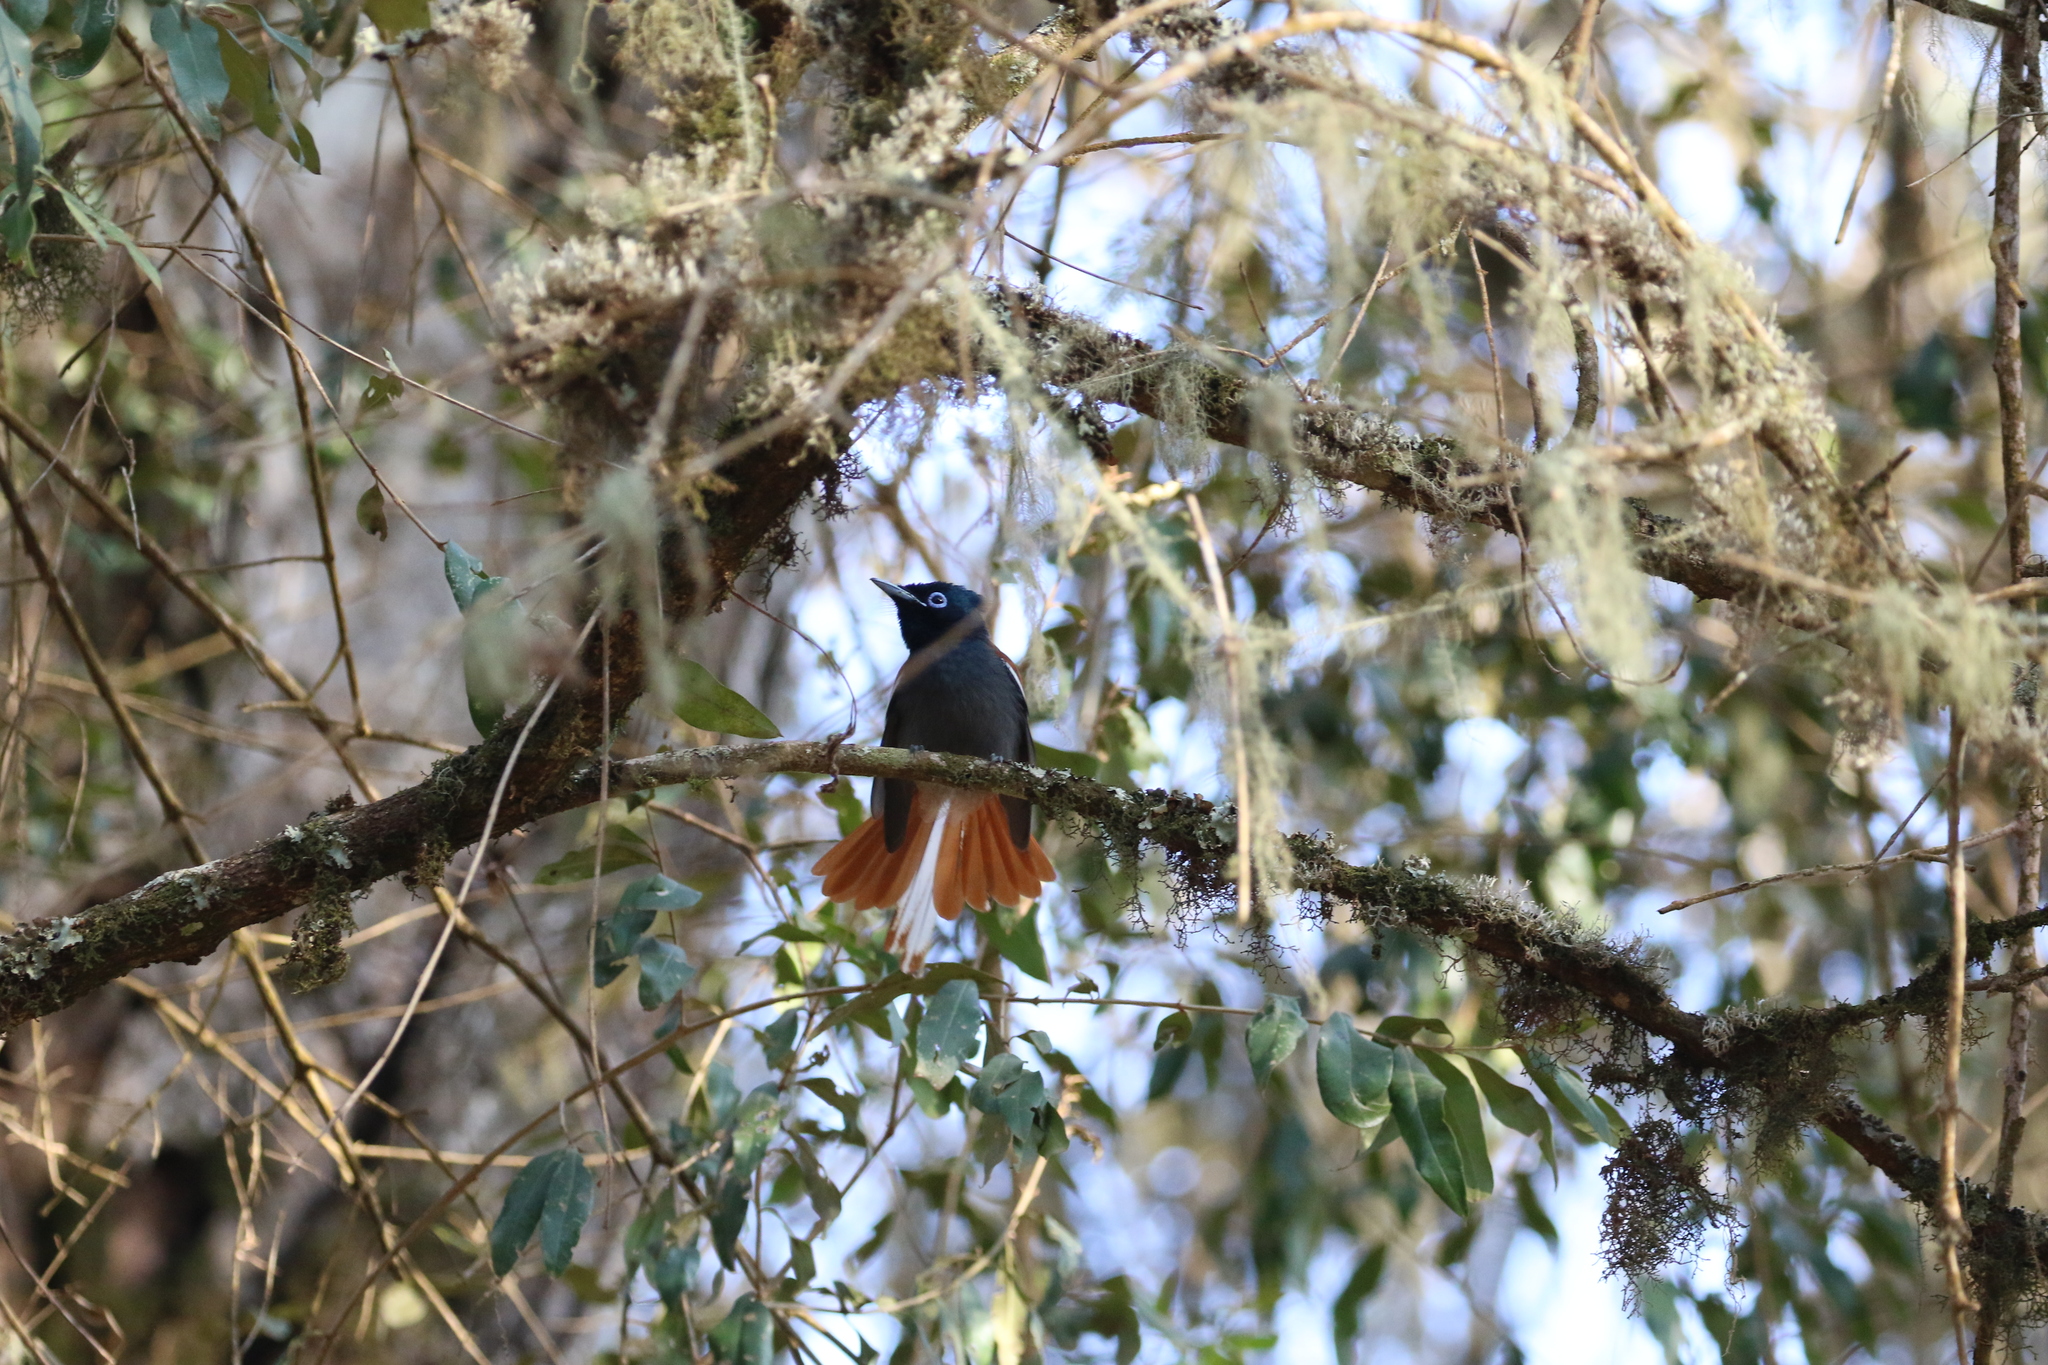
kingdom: Animalia
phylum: Chordata
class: Aves
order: Passeriformes
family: Monarchidae
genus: Terpsiphone
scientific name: Terpsiphone viridis
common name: African paradise flycatcher
